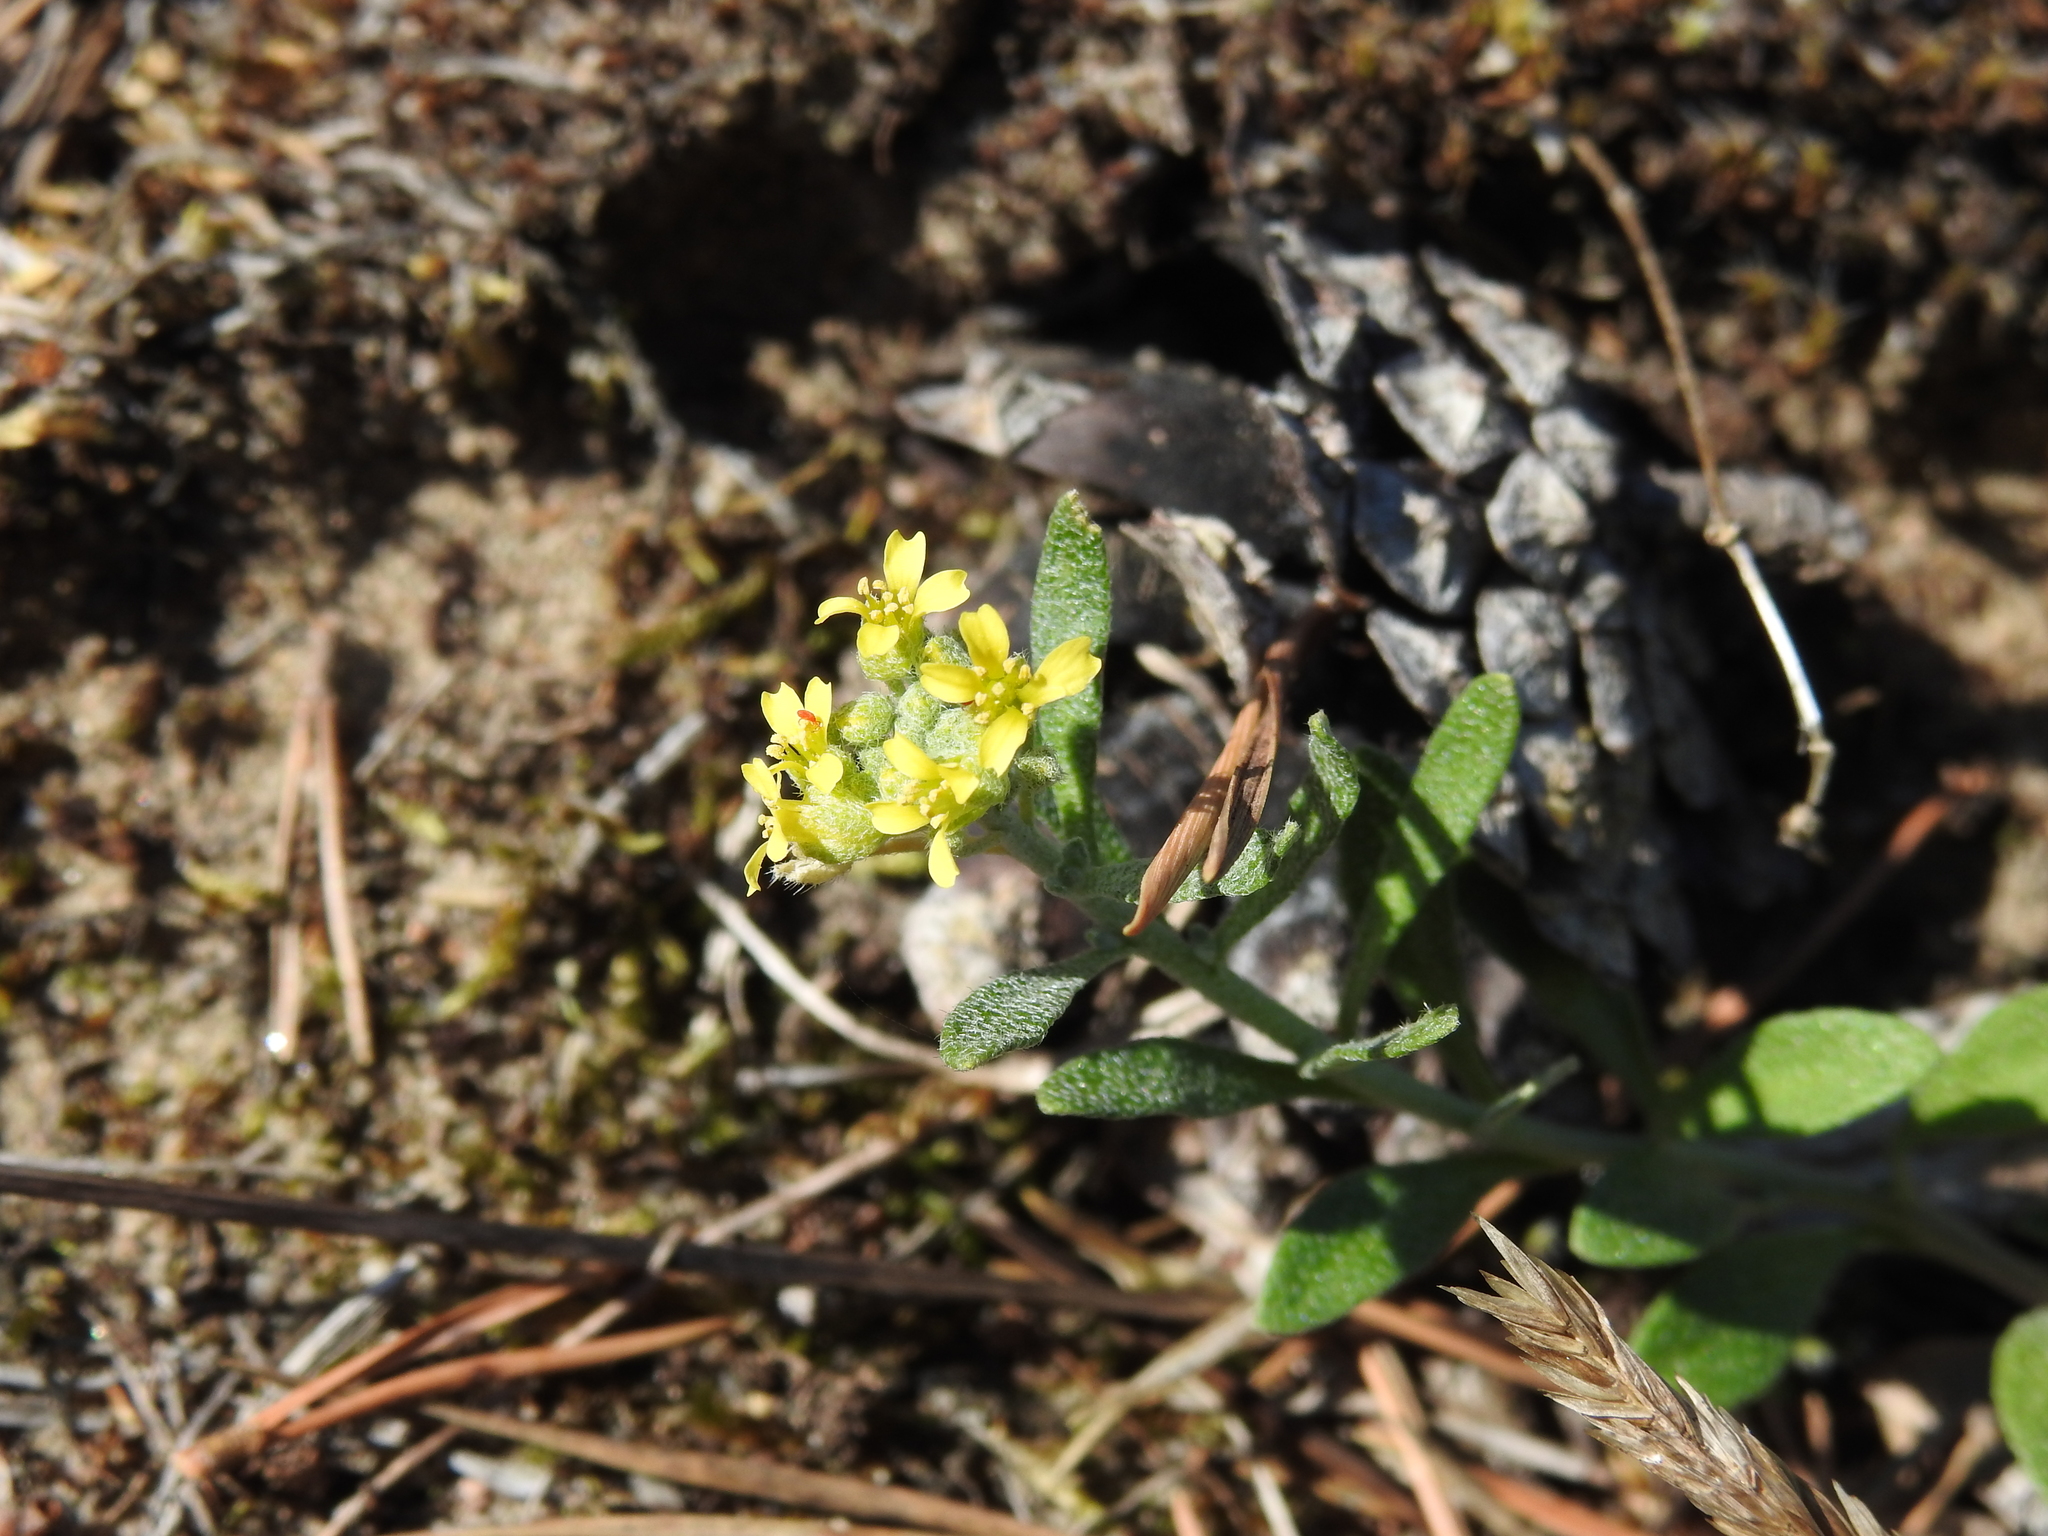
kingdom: Plantae
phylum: Tracheophyta
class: Magnoliopsida
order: Brassicales
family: Brassicaceae
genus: Alyssum
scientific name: Alyssum gmelinii
